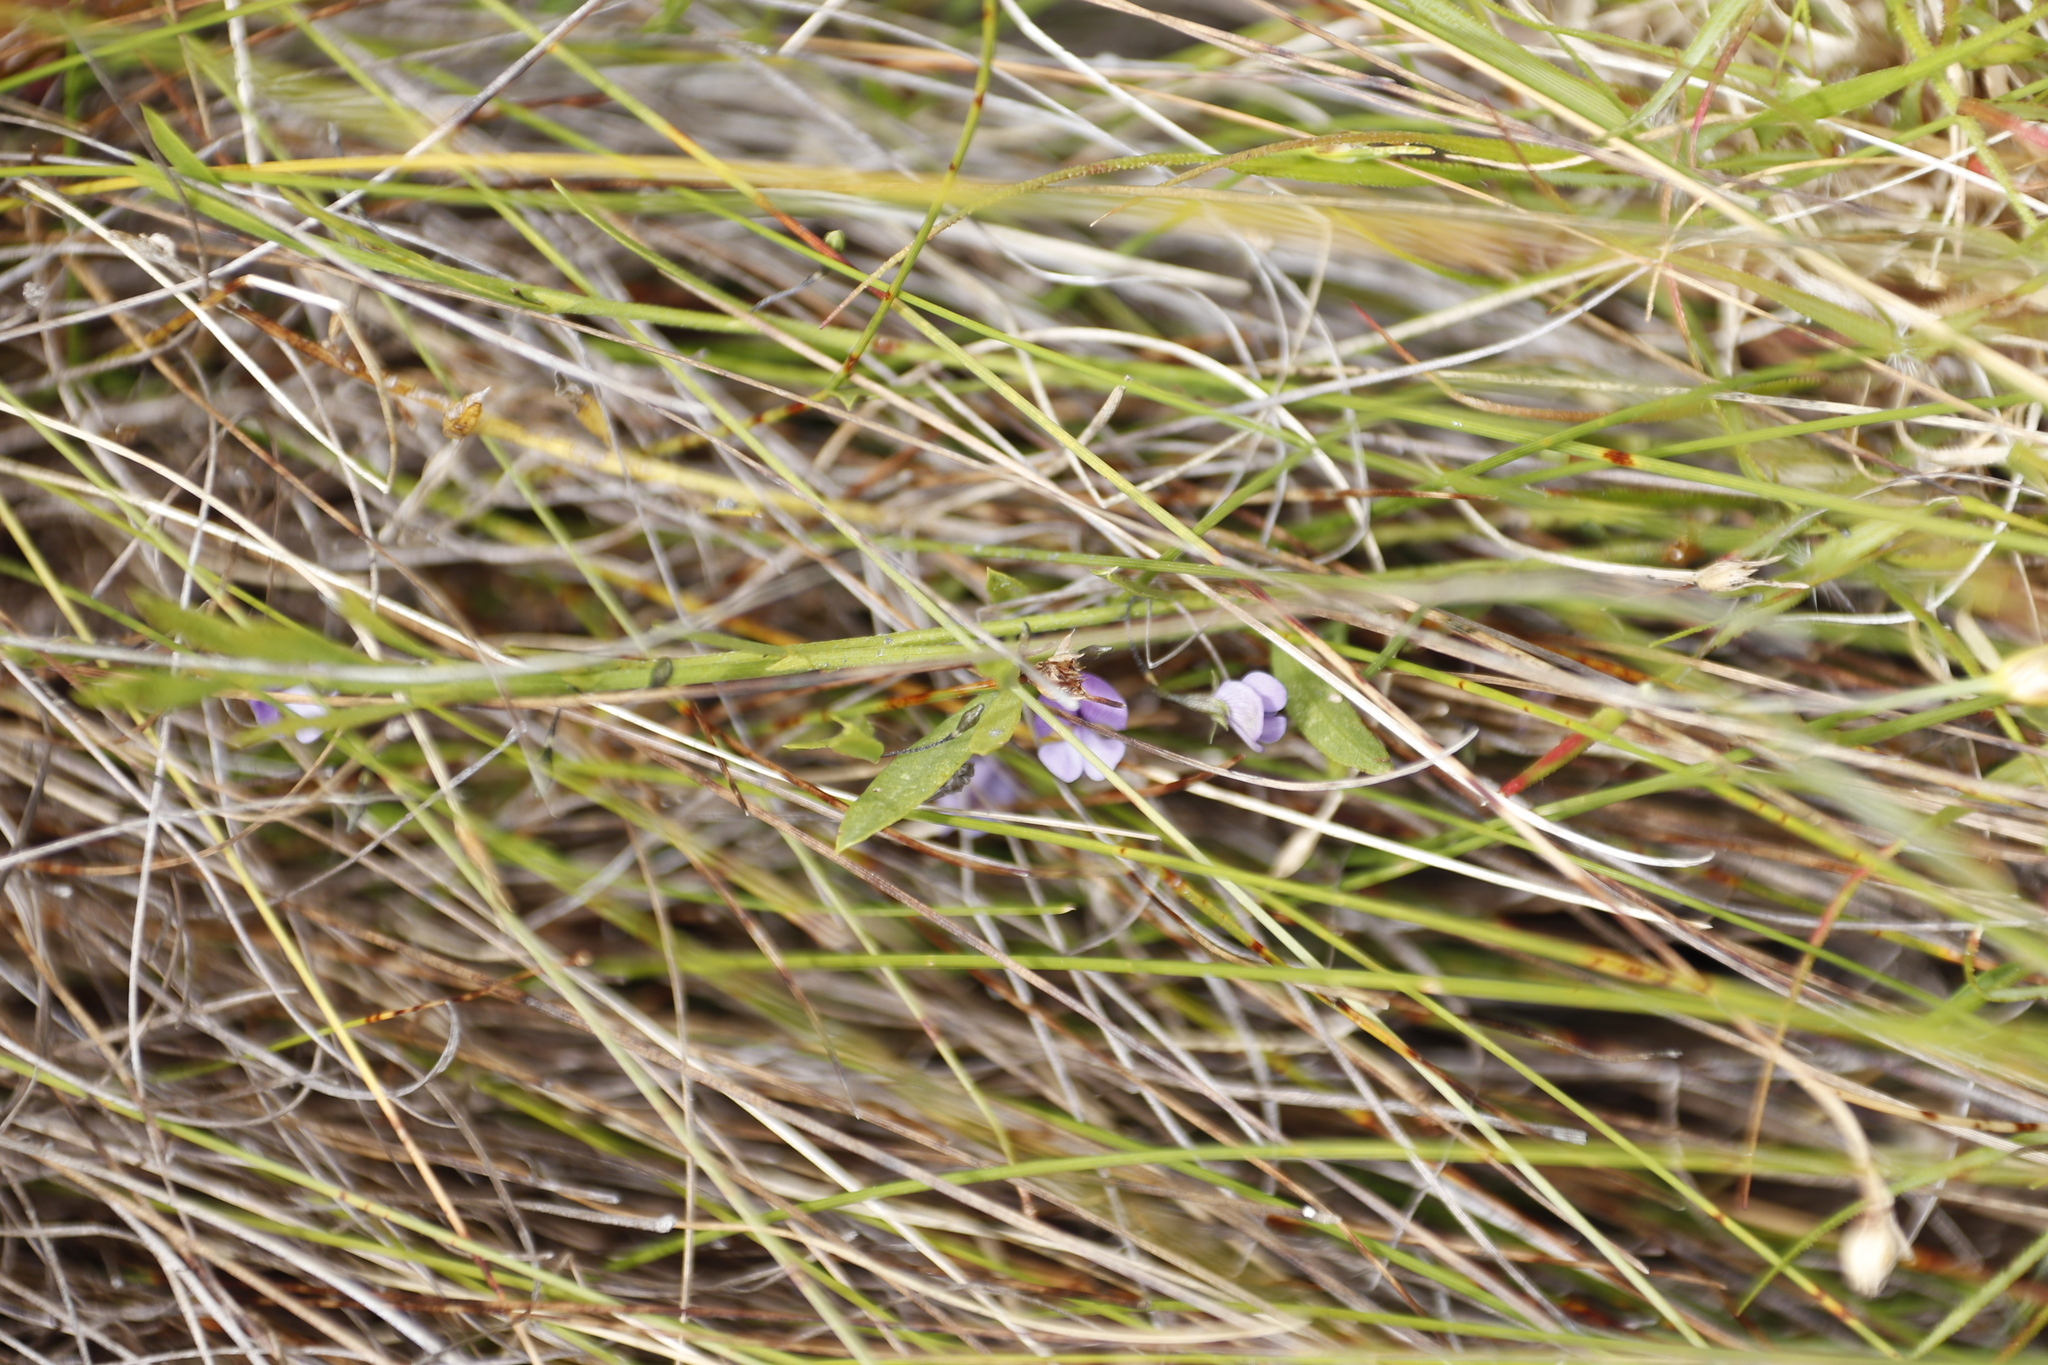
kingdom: Plantae
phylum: Tracheophyta
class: Magnoliopsida
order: Fabales
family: Fabaceae
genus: Psoralea
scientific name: Psoralea laxa
